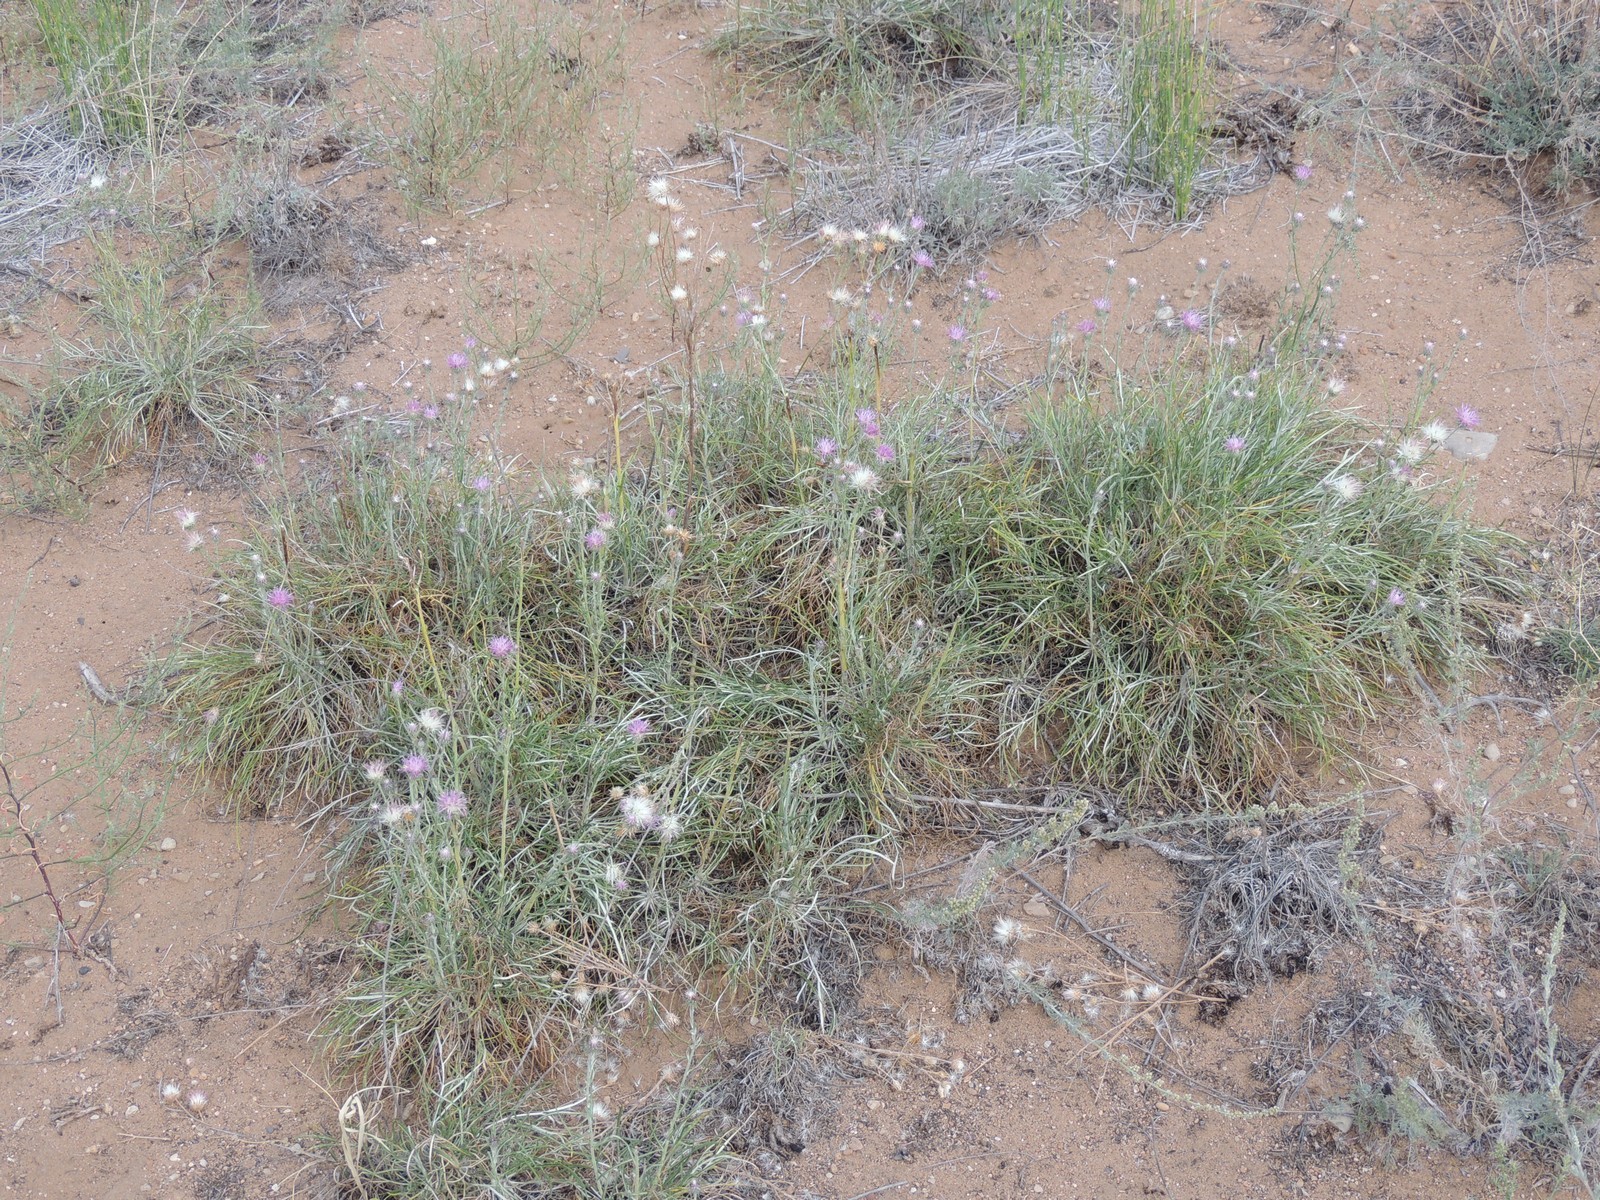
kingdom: Plantae
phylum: Tracheophyta
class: Magnoliopsida
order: Asterales
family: Asteraceae
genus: Jurinea
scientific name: Jurinea polyclonos
